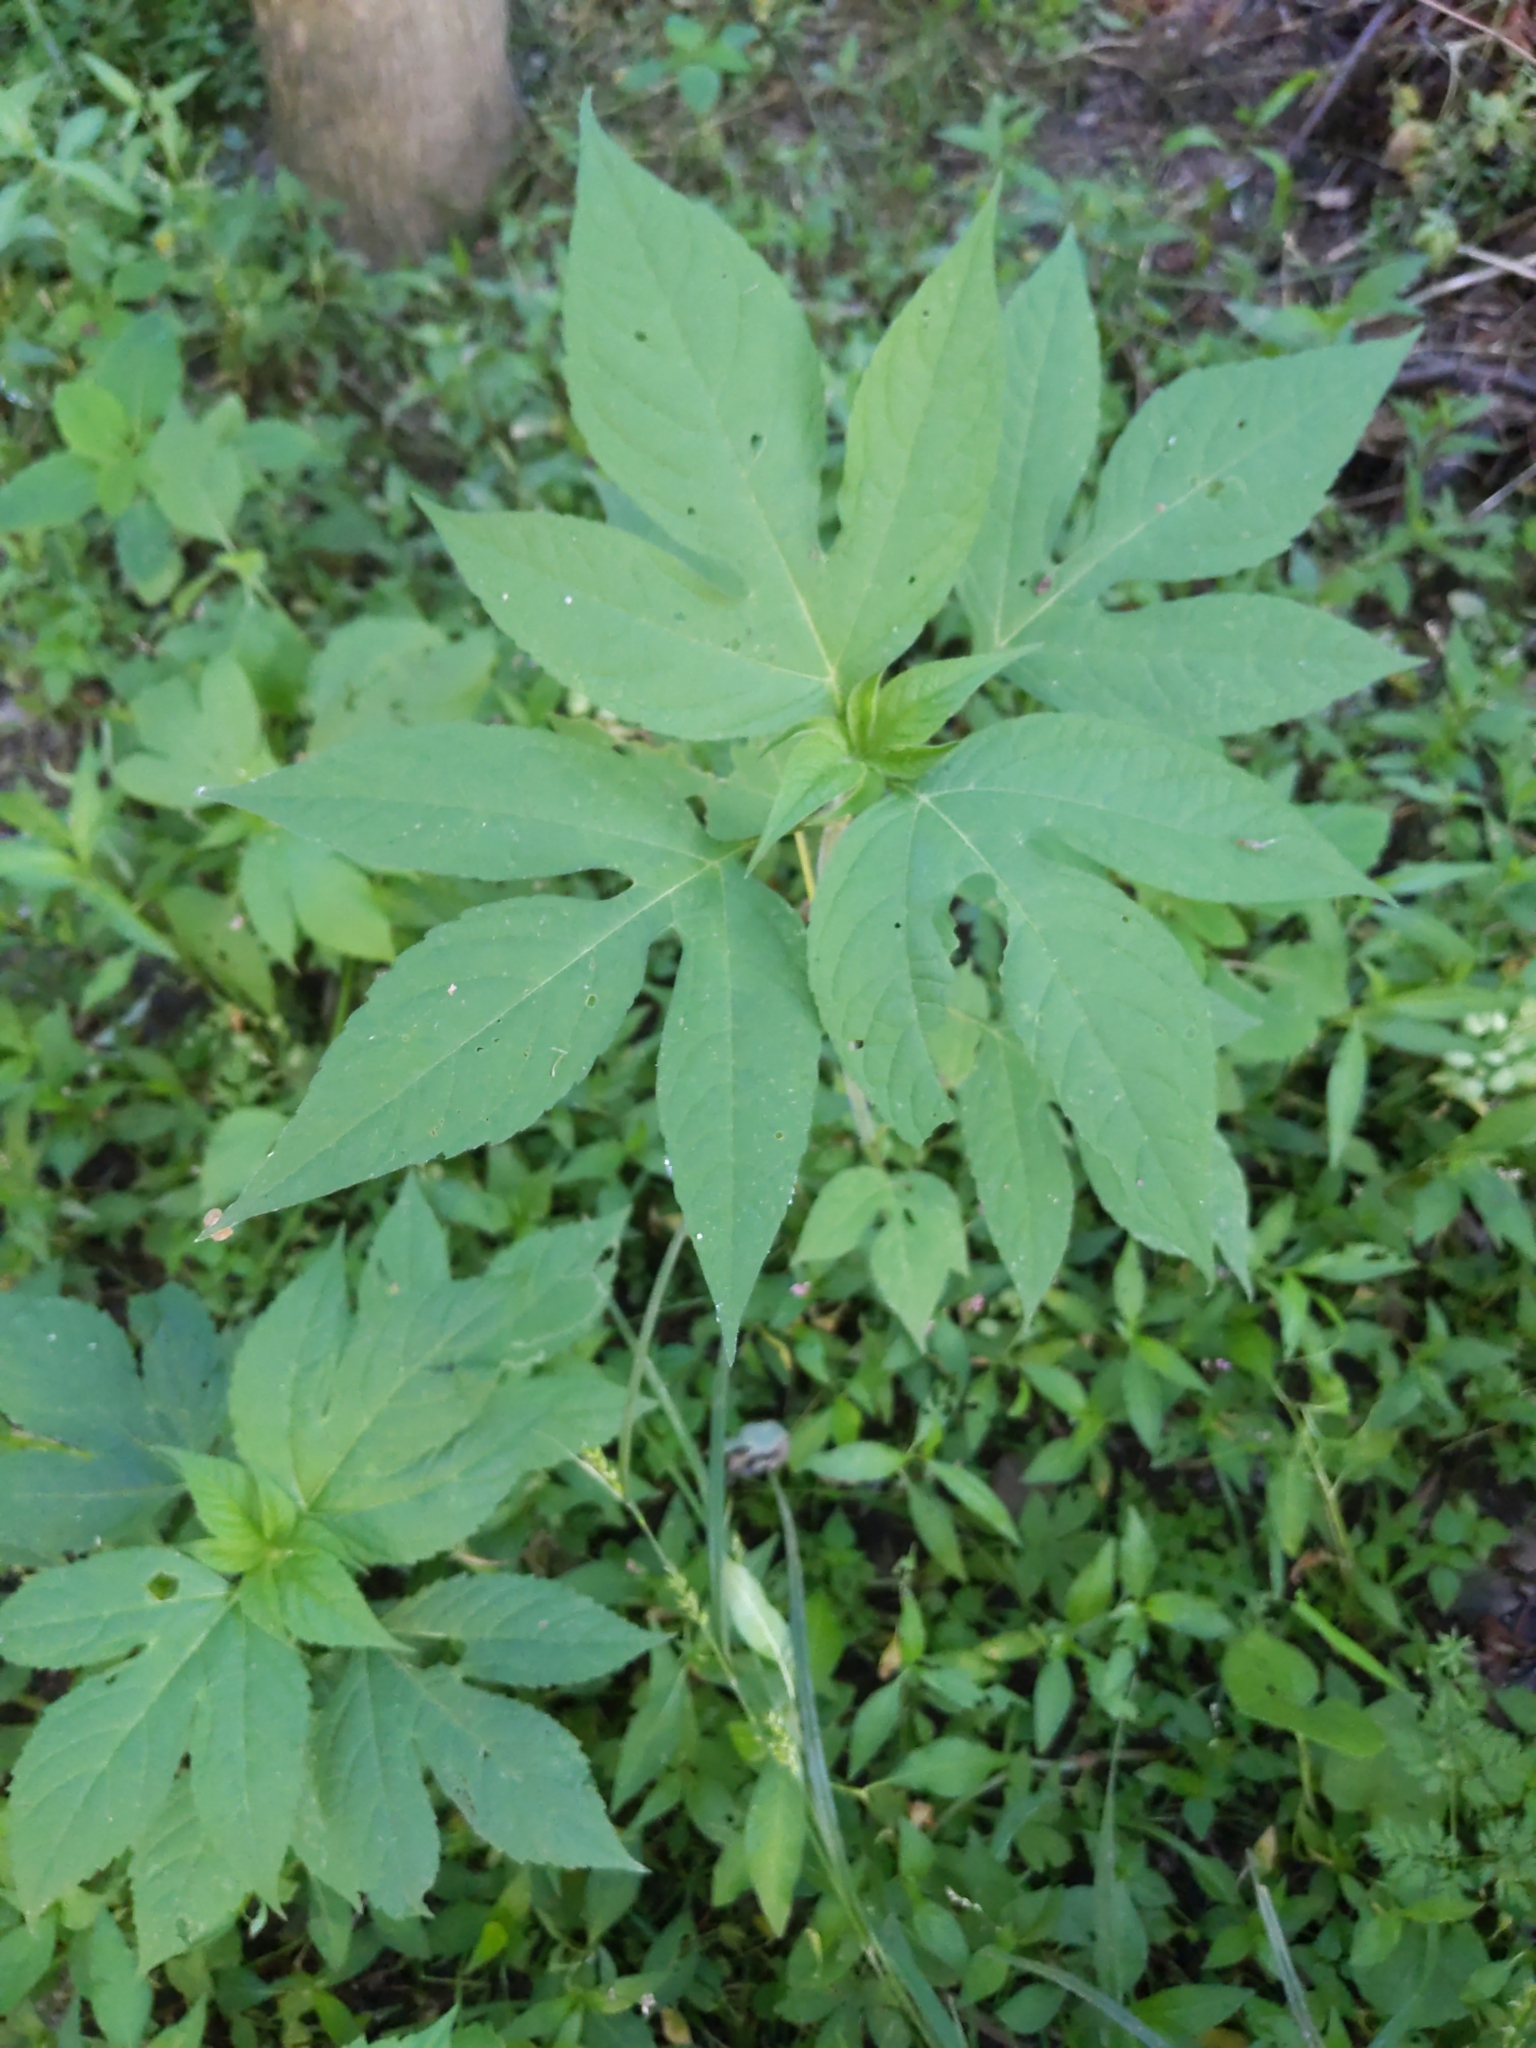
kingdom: Plantae
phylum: Tracheophyta
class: Magnoliopsida
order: Asterales
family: Asteraceae
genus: Ambrosia
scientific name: Ambrosia trifida
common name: Giant ragweed
